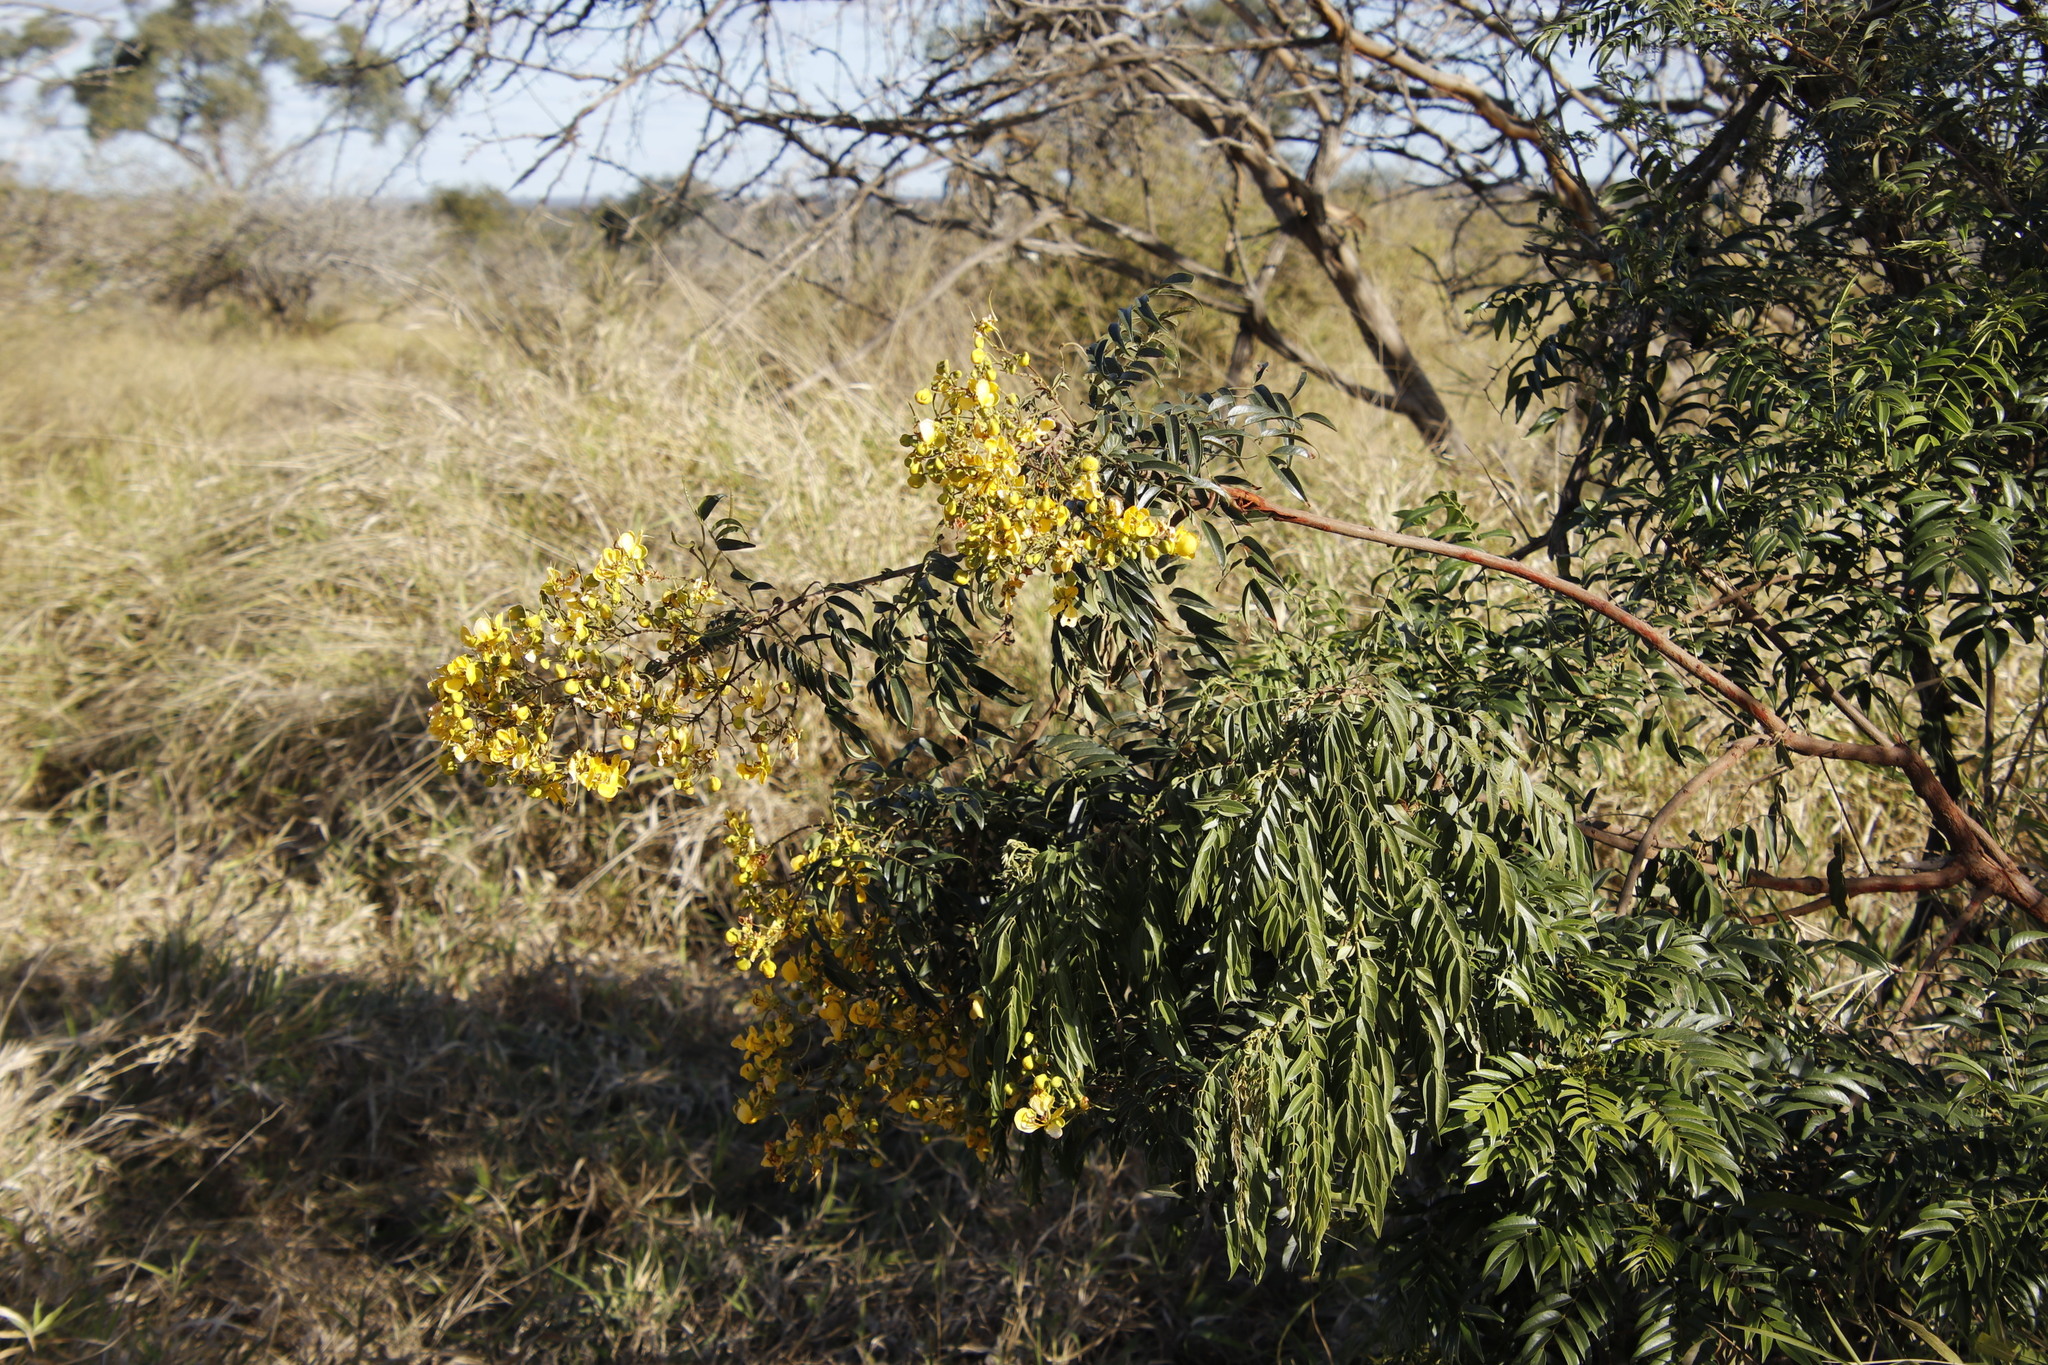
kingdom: Plantae
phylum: Tracheophyta
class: Magnoliopsida
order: Fabales
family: Fabaceae
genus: Senna
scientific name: Senna petersiana
